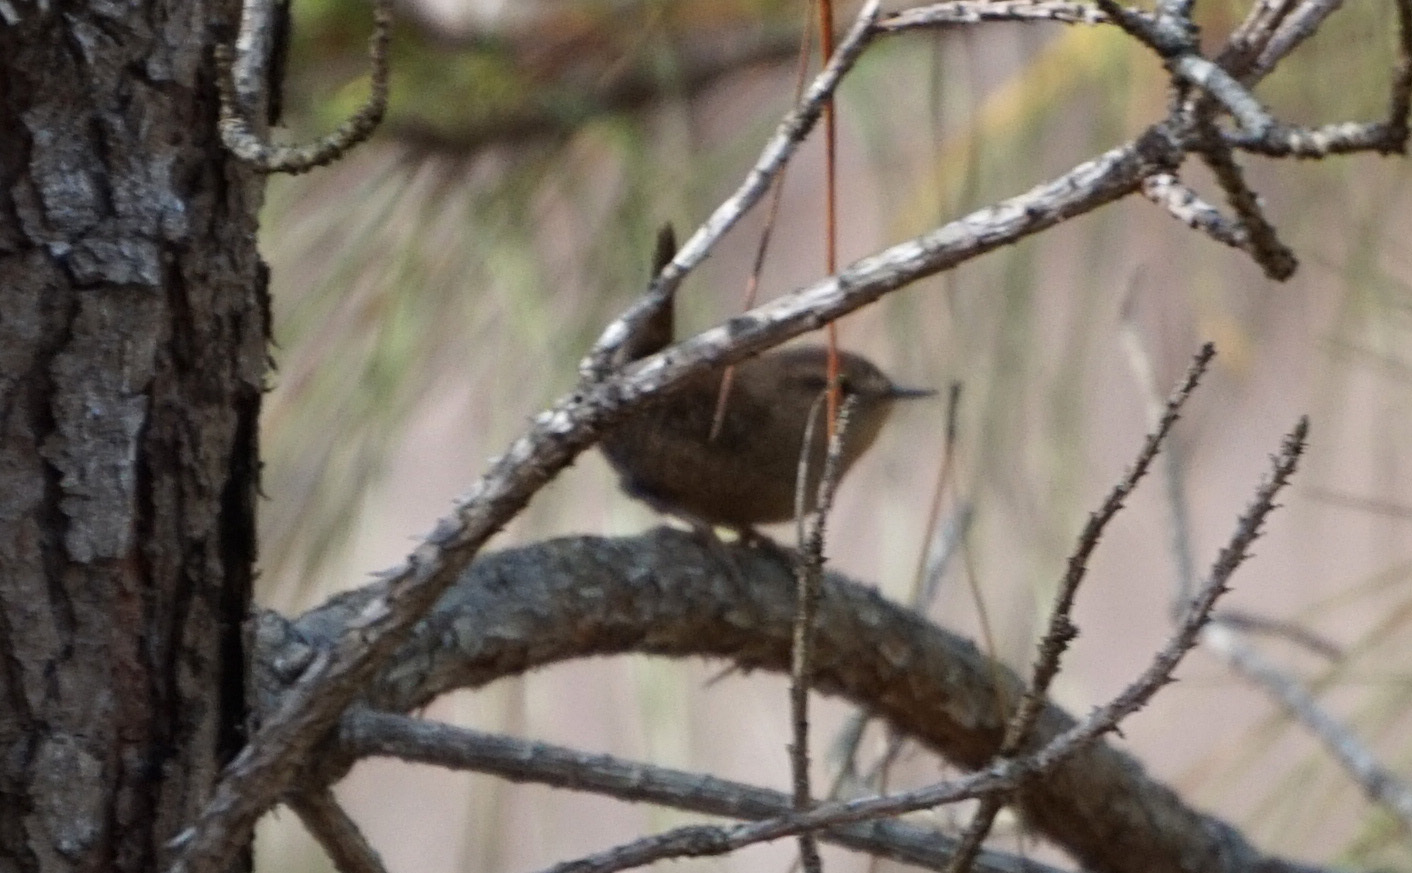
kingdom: Animalia
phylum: Chordata
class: Aves
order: Passeriformes
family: Troglodytidae
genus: Troglodytes
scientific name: Troglodytes hiemalis
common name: Winter wren
